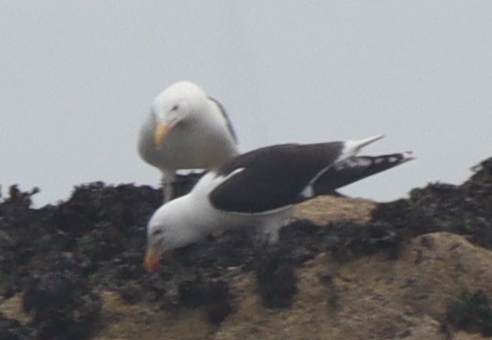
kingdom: Animalia
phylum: Chordata
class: Aves
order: Charadriiformes
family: Laridae
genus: Larus
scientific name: Larus marinus
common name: Great black-backed gull
